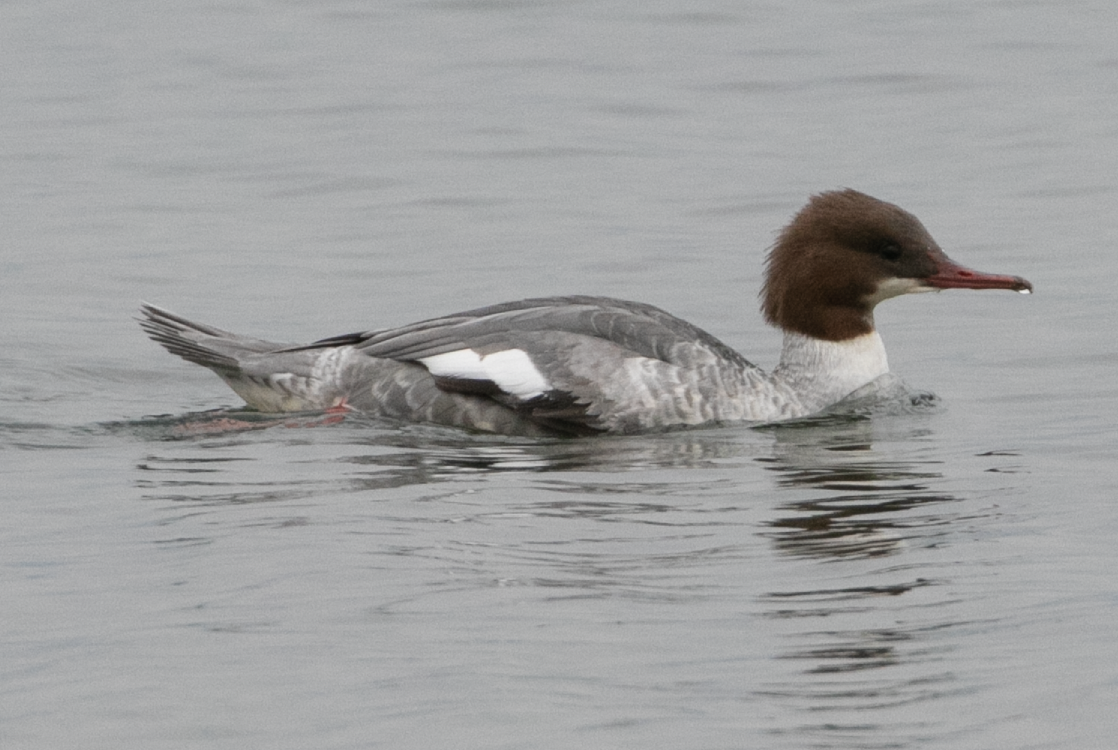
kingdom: Animalia
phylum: Chordata
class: Aves
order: Anseriformes
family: Anatidae
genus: Mergus
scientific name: Mergus merganser
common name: Common merganser
